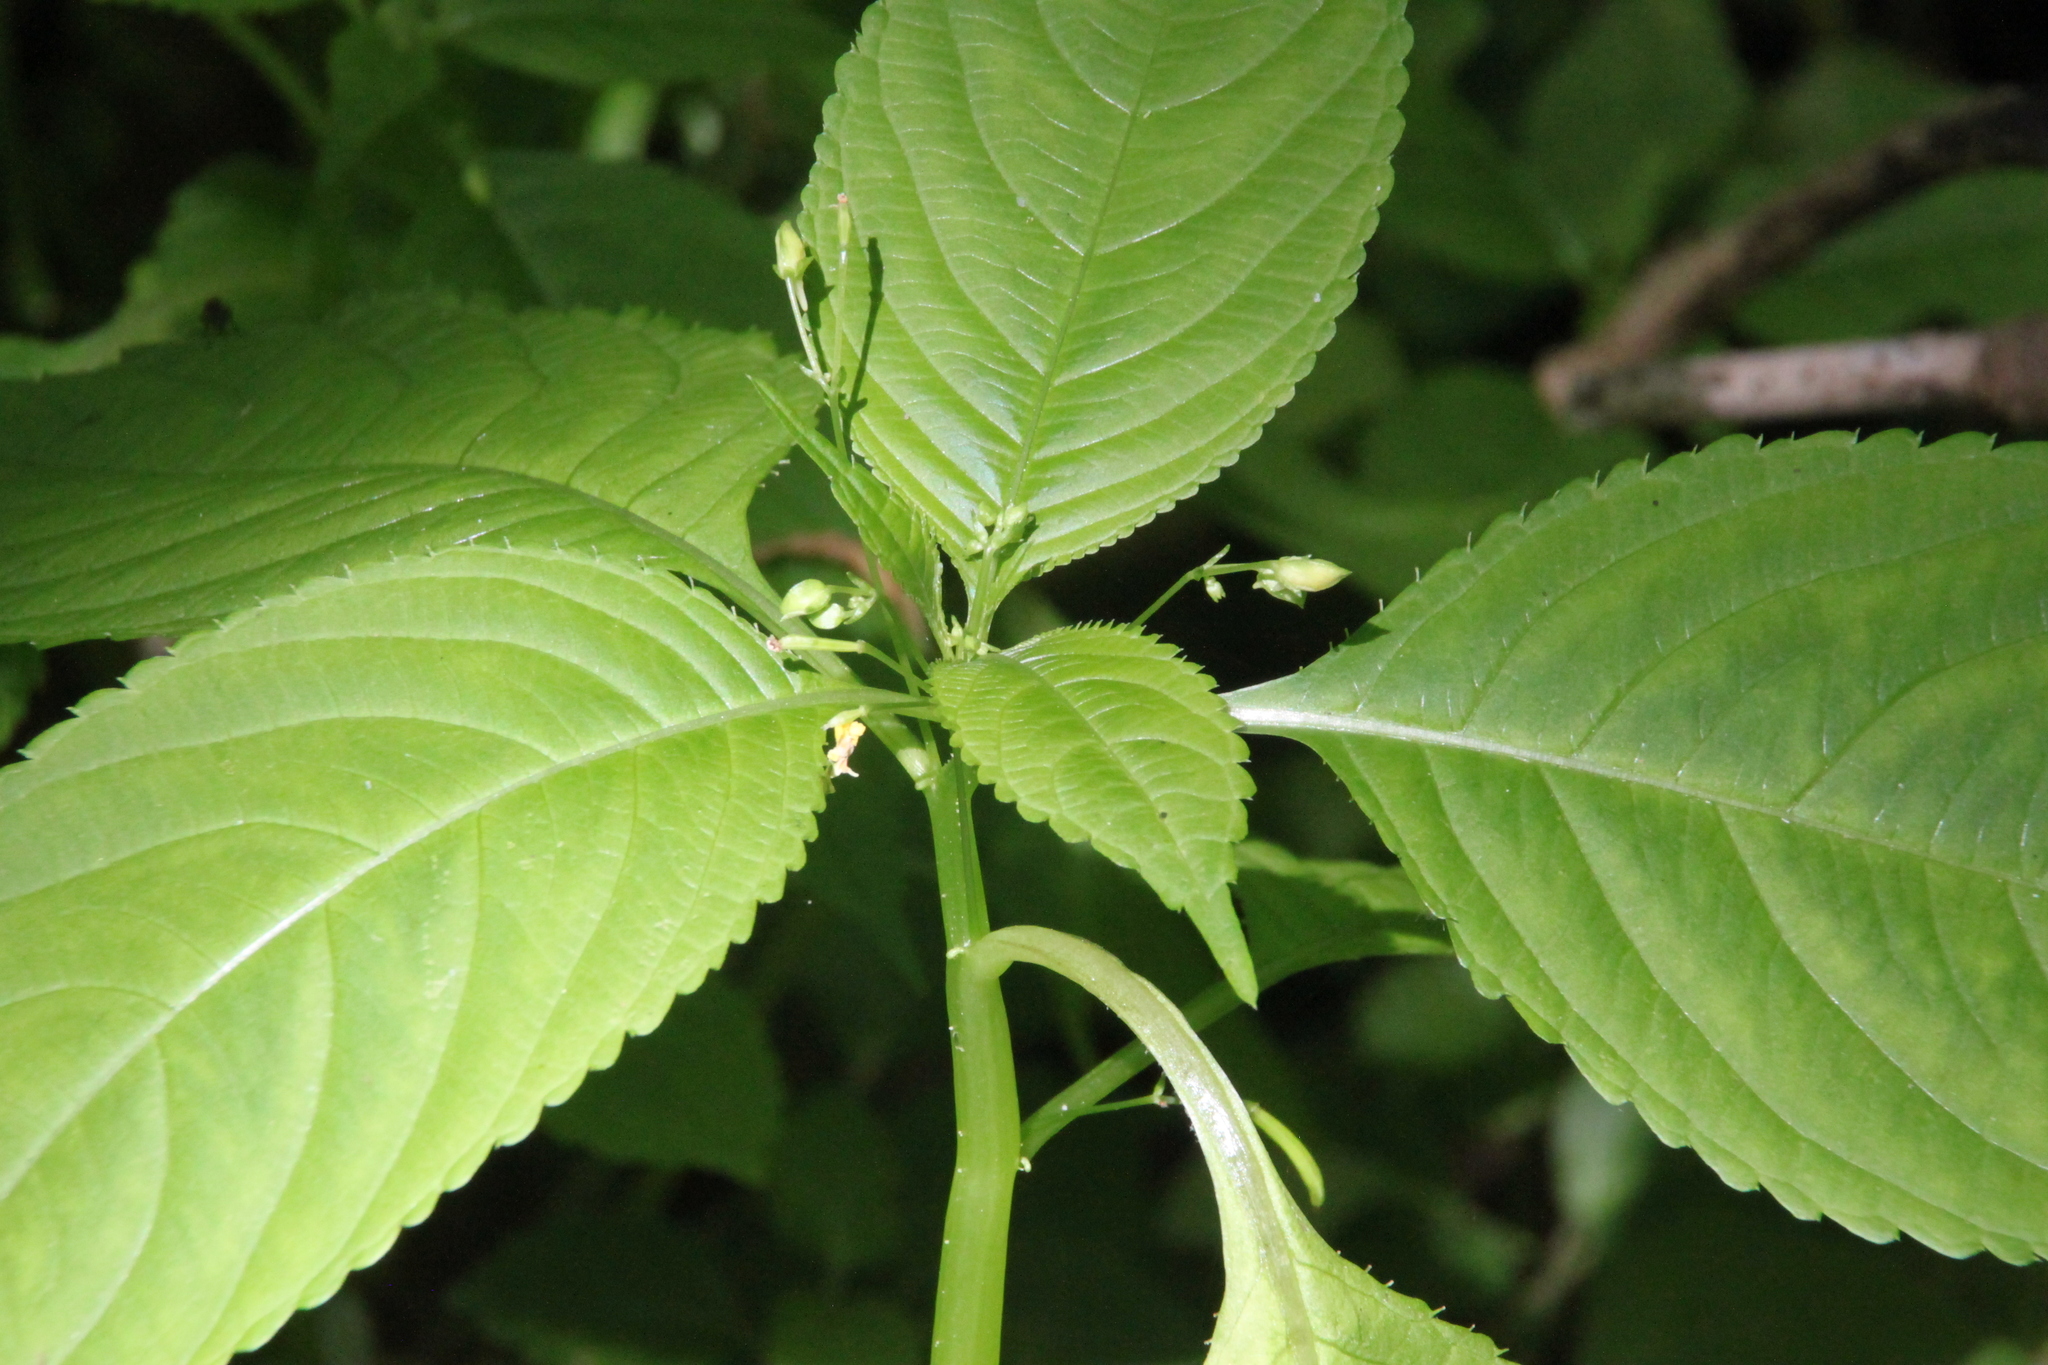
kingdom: Plantae
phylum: Tracheophyta
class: Magnoliopsida
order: Ericales
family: Balsaminaceae
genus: Impatiens
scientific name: Impatiens parviflora
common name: Small balsam
